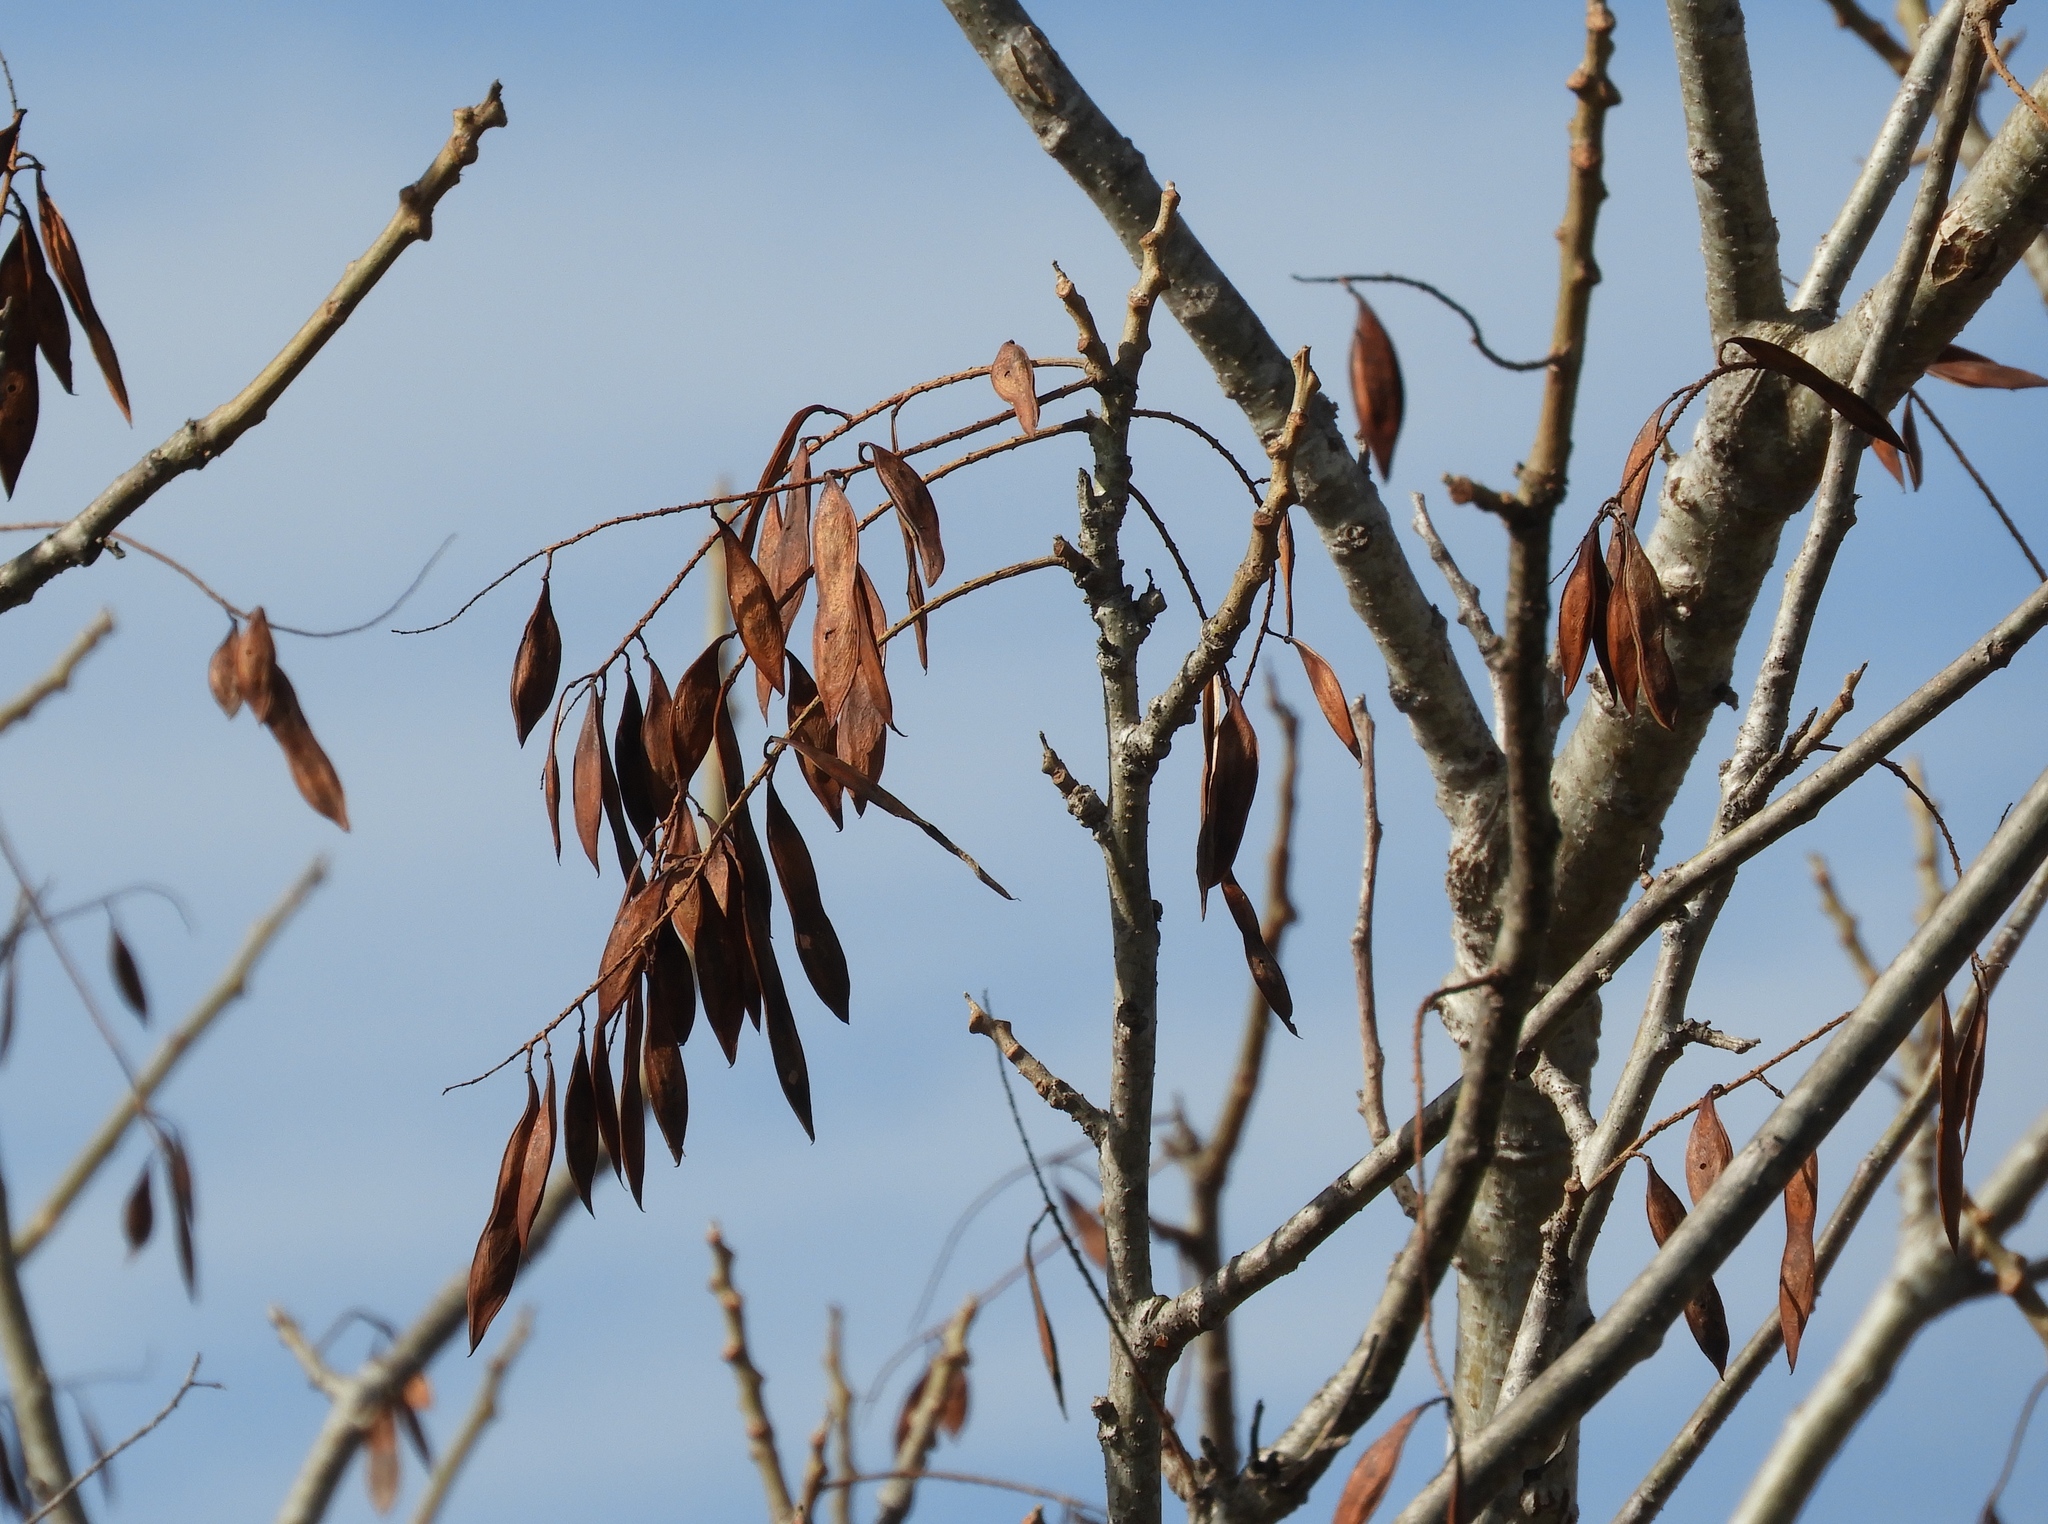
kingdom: Plantae
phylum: Tracheophyta
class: Magnoliopsida
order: Fabales
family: Fabaceae
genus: Conzattia
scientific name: Conzattia sericea
